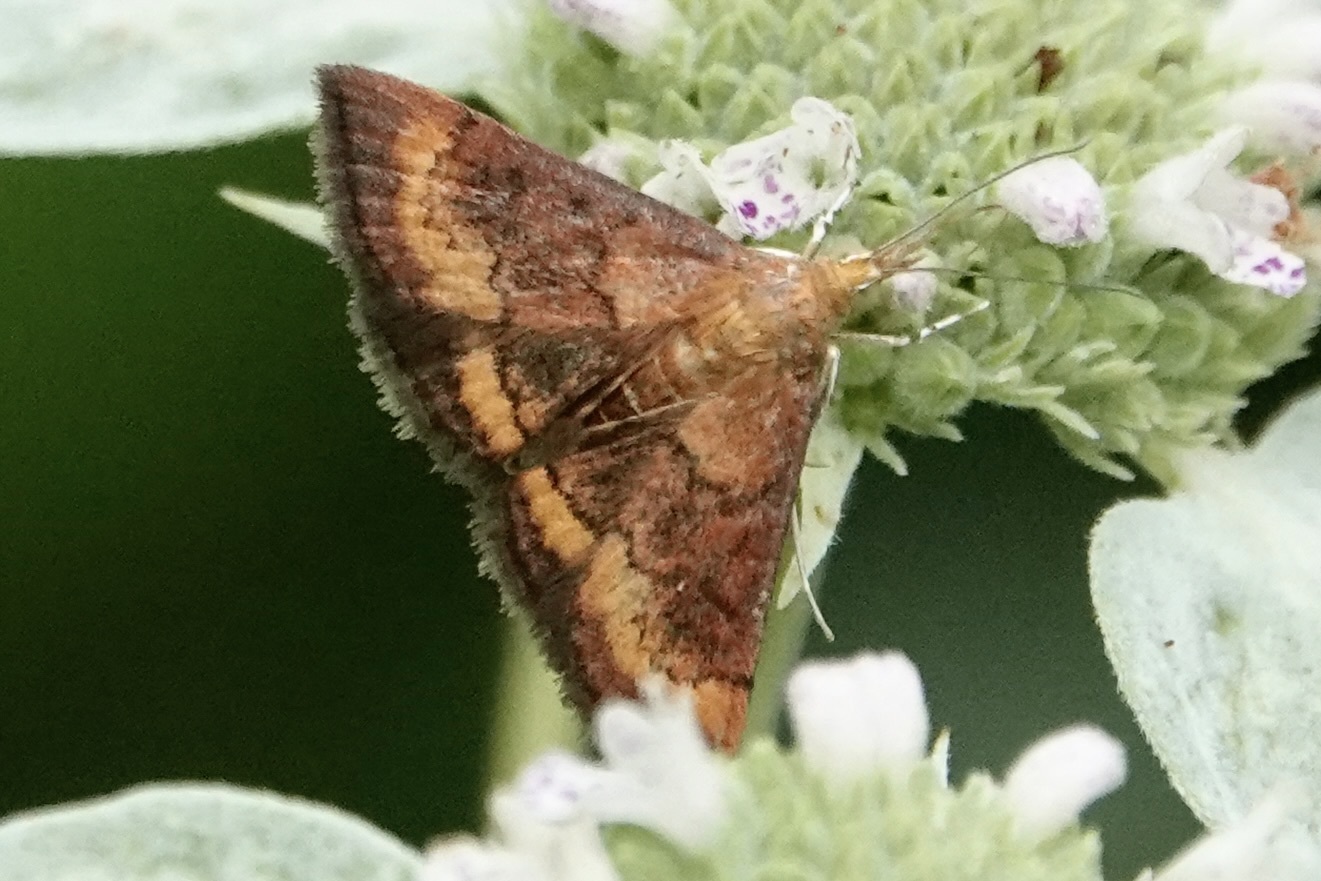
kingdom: Animalia
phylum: Arthropoda
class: Insecta
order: Lepidoptera
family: Crambidae
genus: Pyrausta
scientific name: Pyrausta rubricalis
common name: Variable reddish pyrausta
